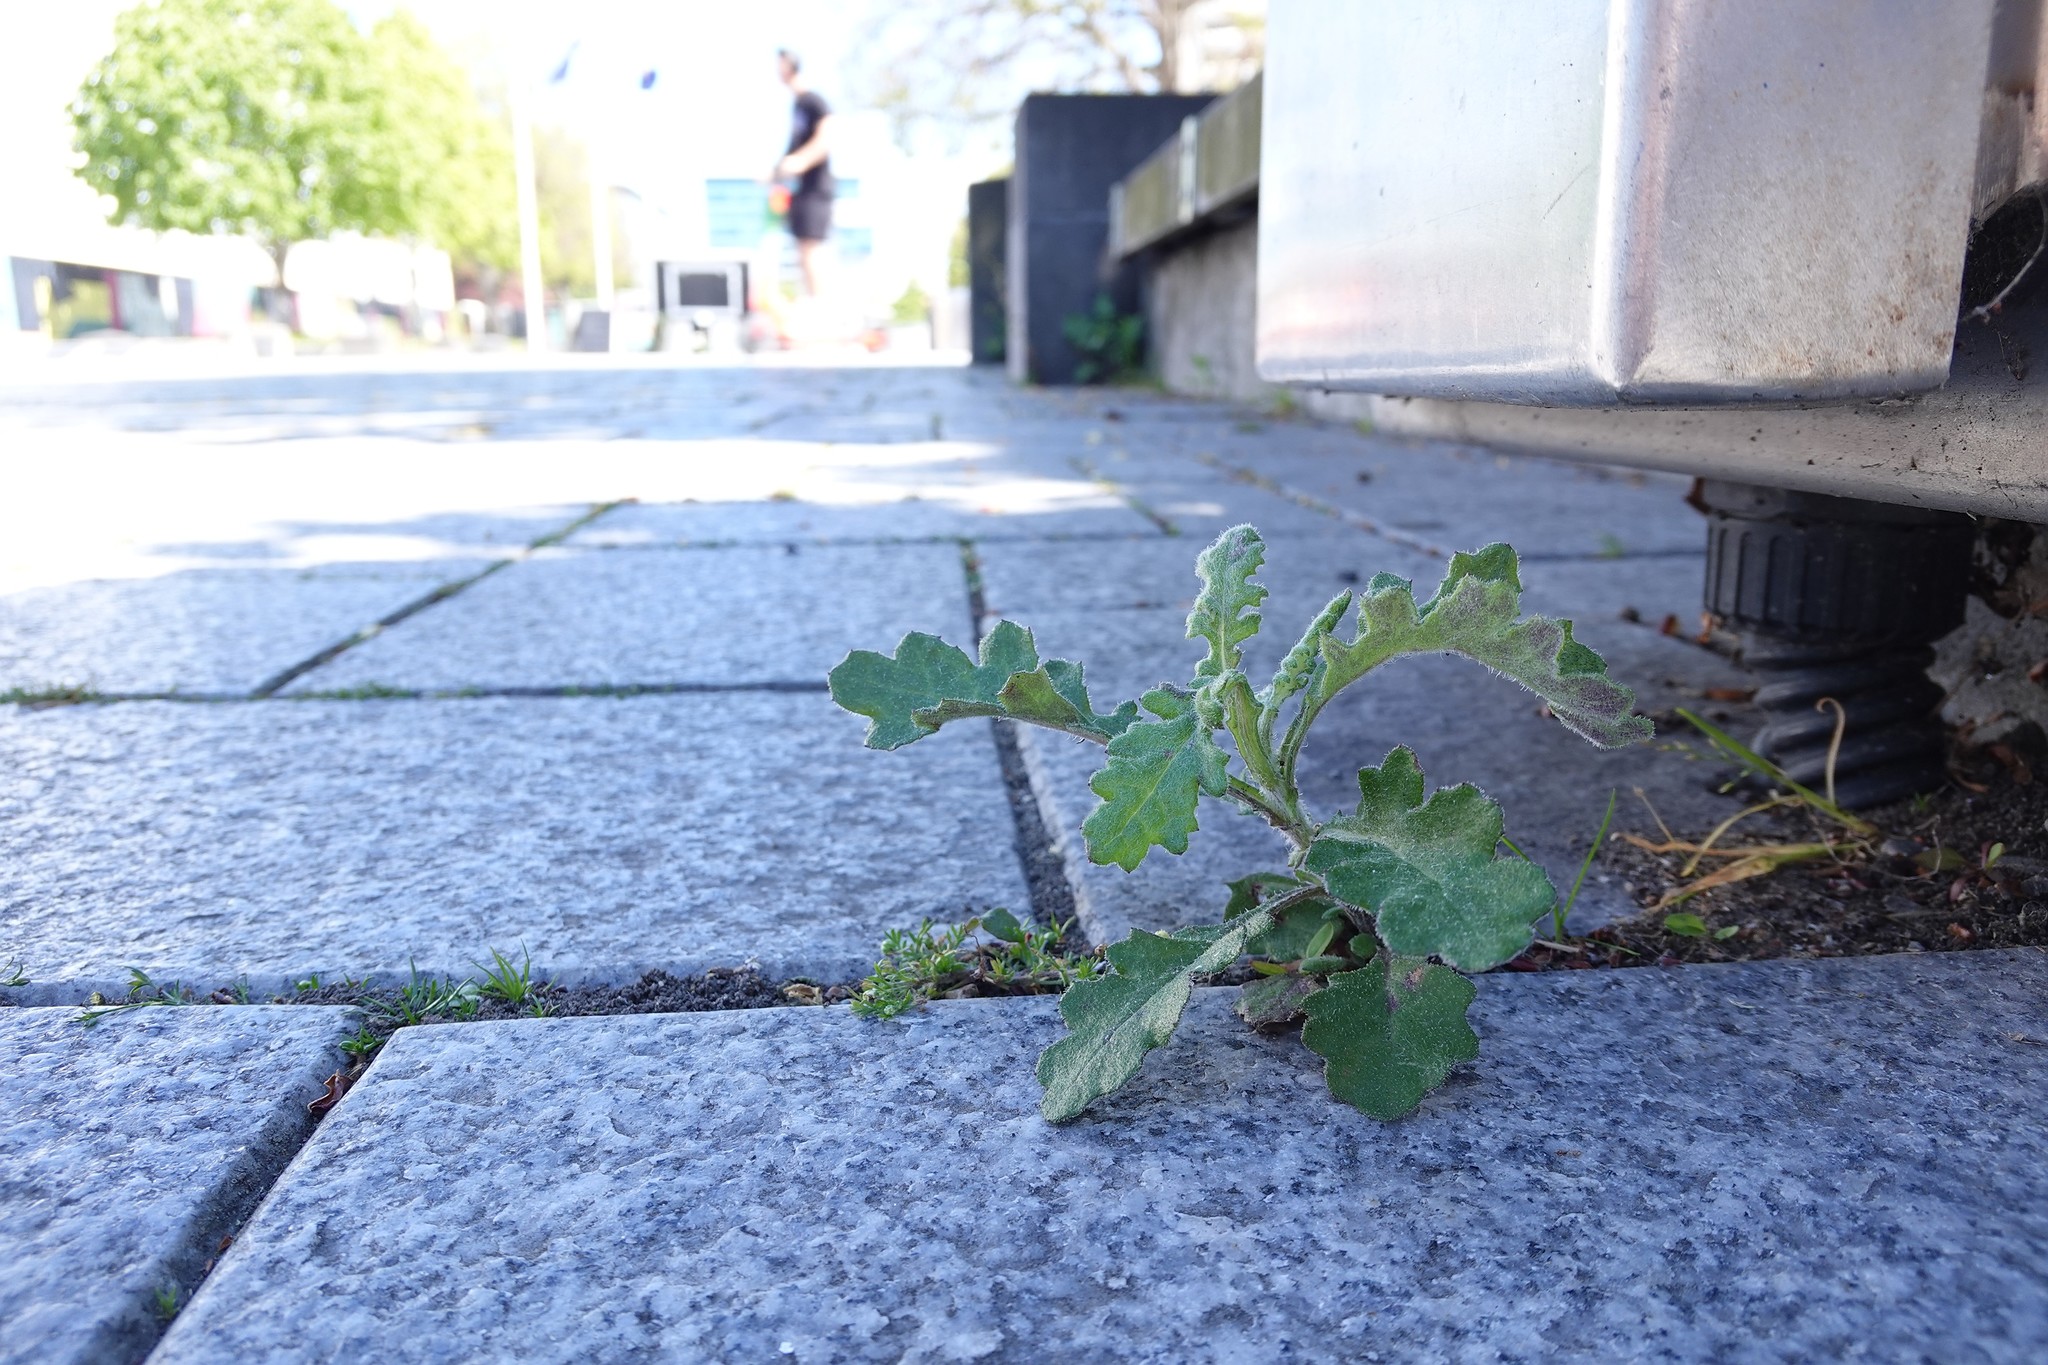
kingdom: Plantae
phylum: Tracheophyta
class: Magnoliopsida
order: Asterales
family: Asteraceae
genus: Senecio
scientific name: Senecio glomeratus
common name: Cutleaf burnweed
